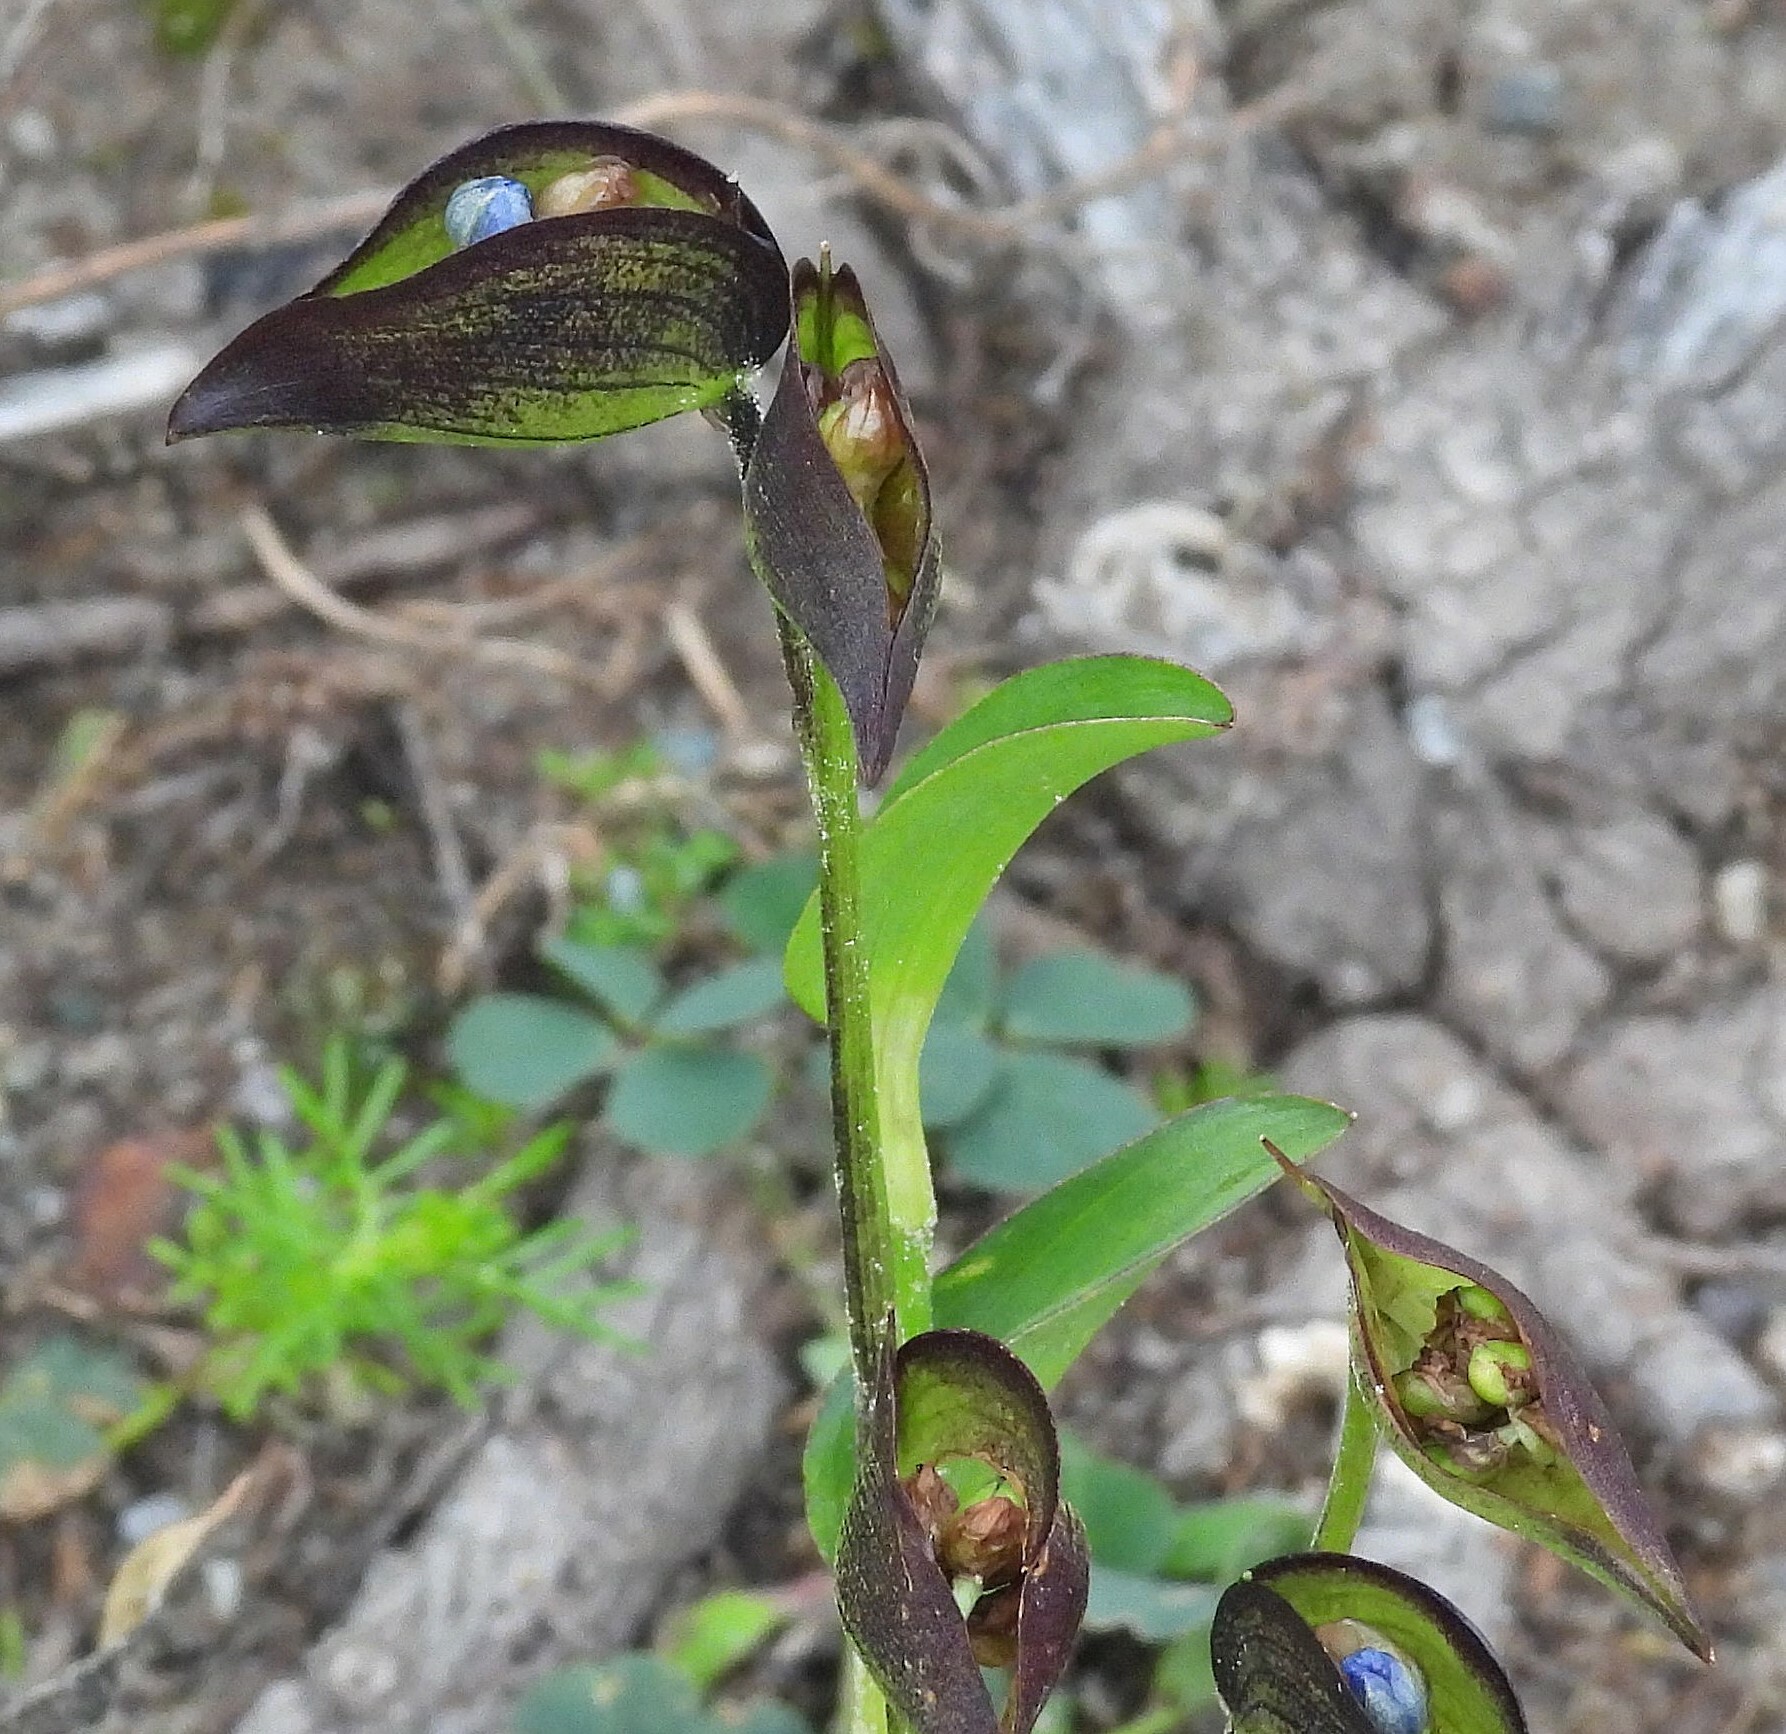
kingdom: Plantae
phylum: Tracheophyta
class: Liliopsida
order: Commelinales
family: Commelinaceae
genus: Commelina
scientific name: Commelina tuberosa
